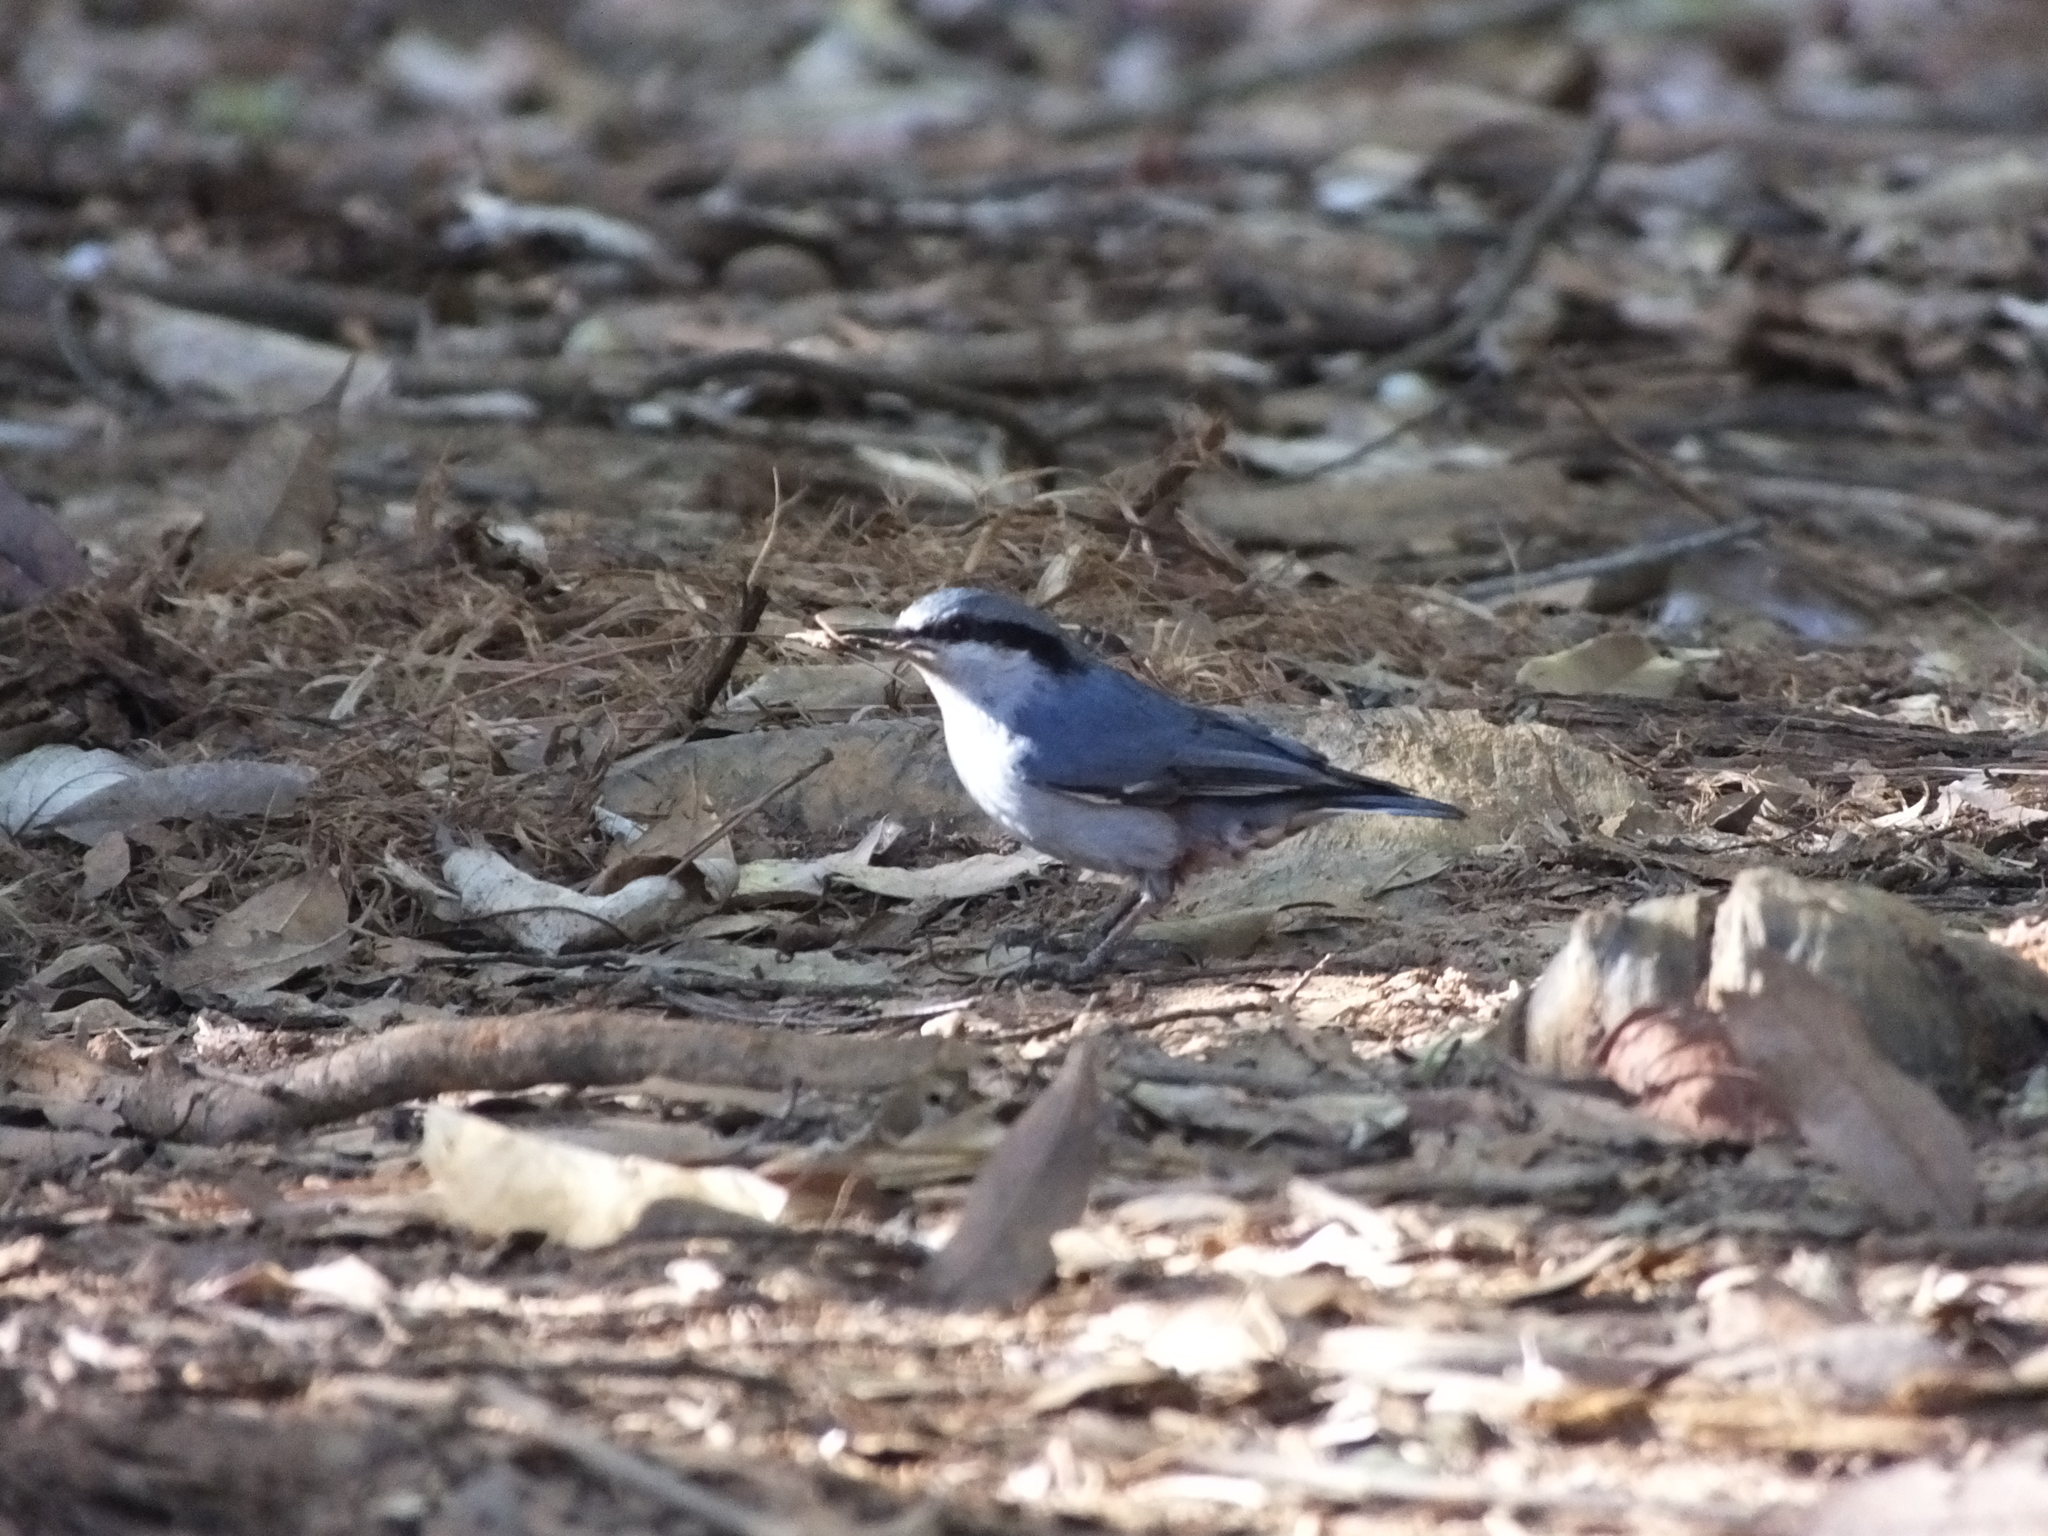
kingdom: Animalia
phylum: Chordata
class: Aves
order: Passeriformes
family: Sittidae
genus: Sitta
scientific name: Sitta nagaensis
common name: Chestnut-vented nuthatch
